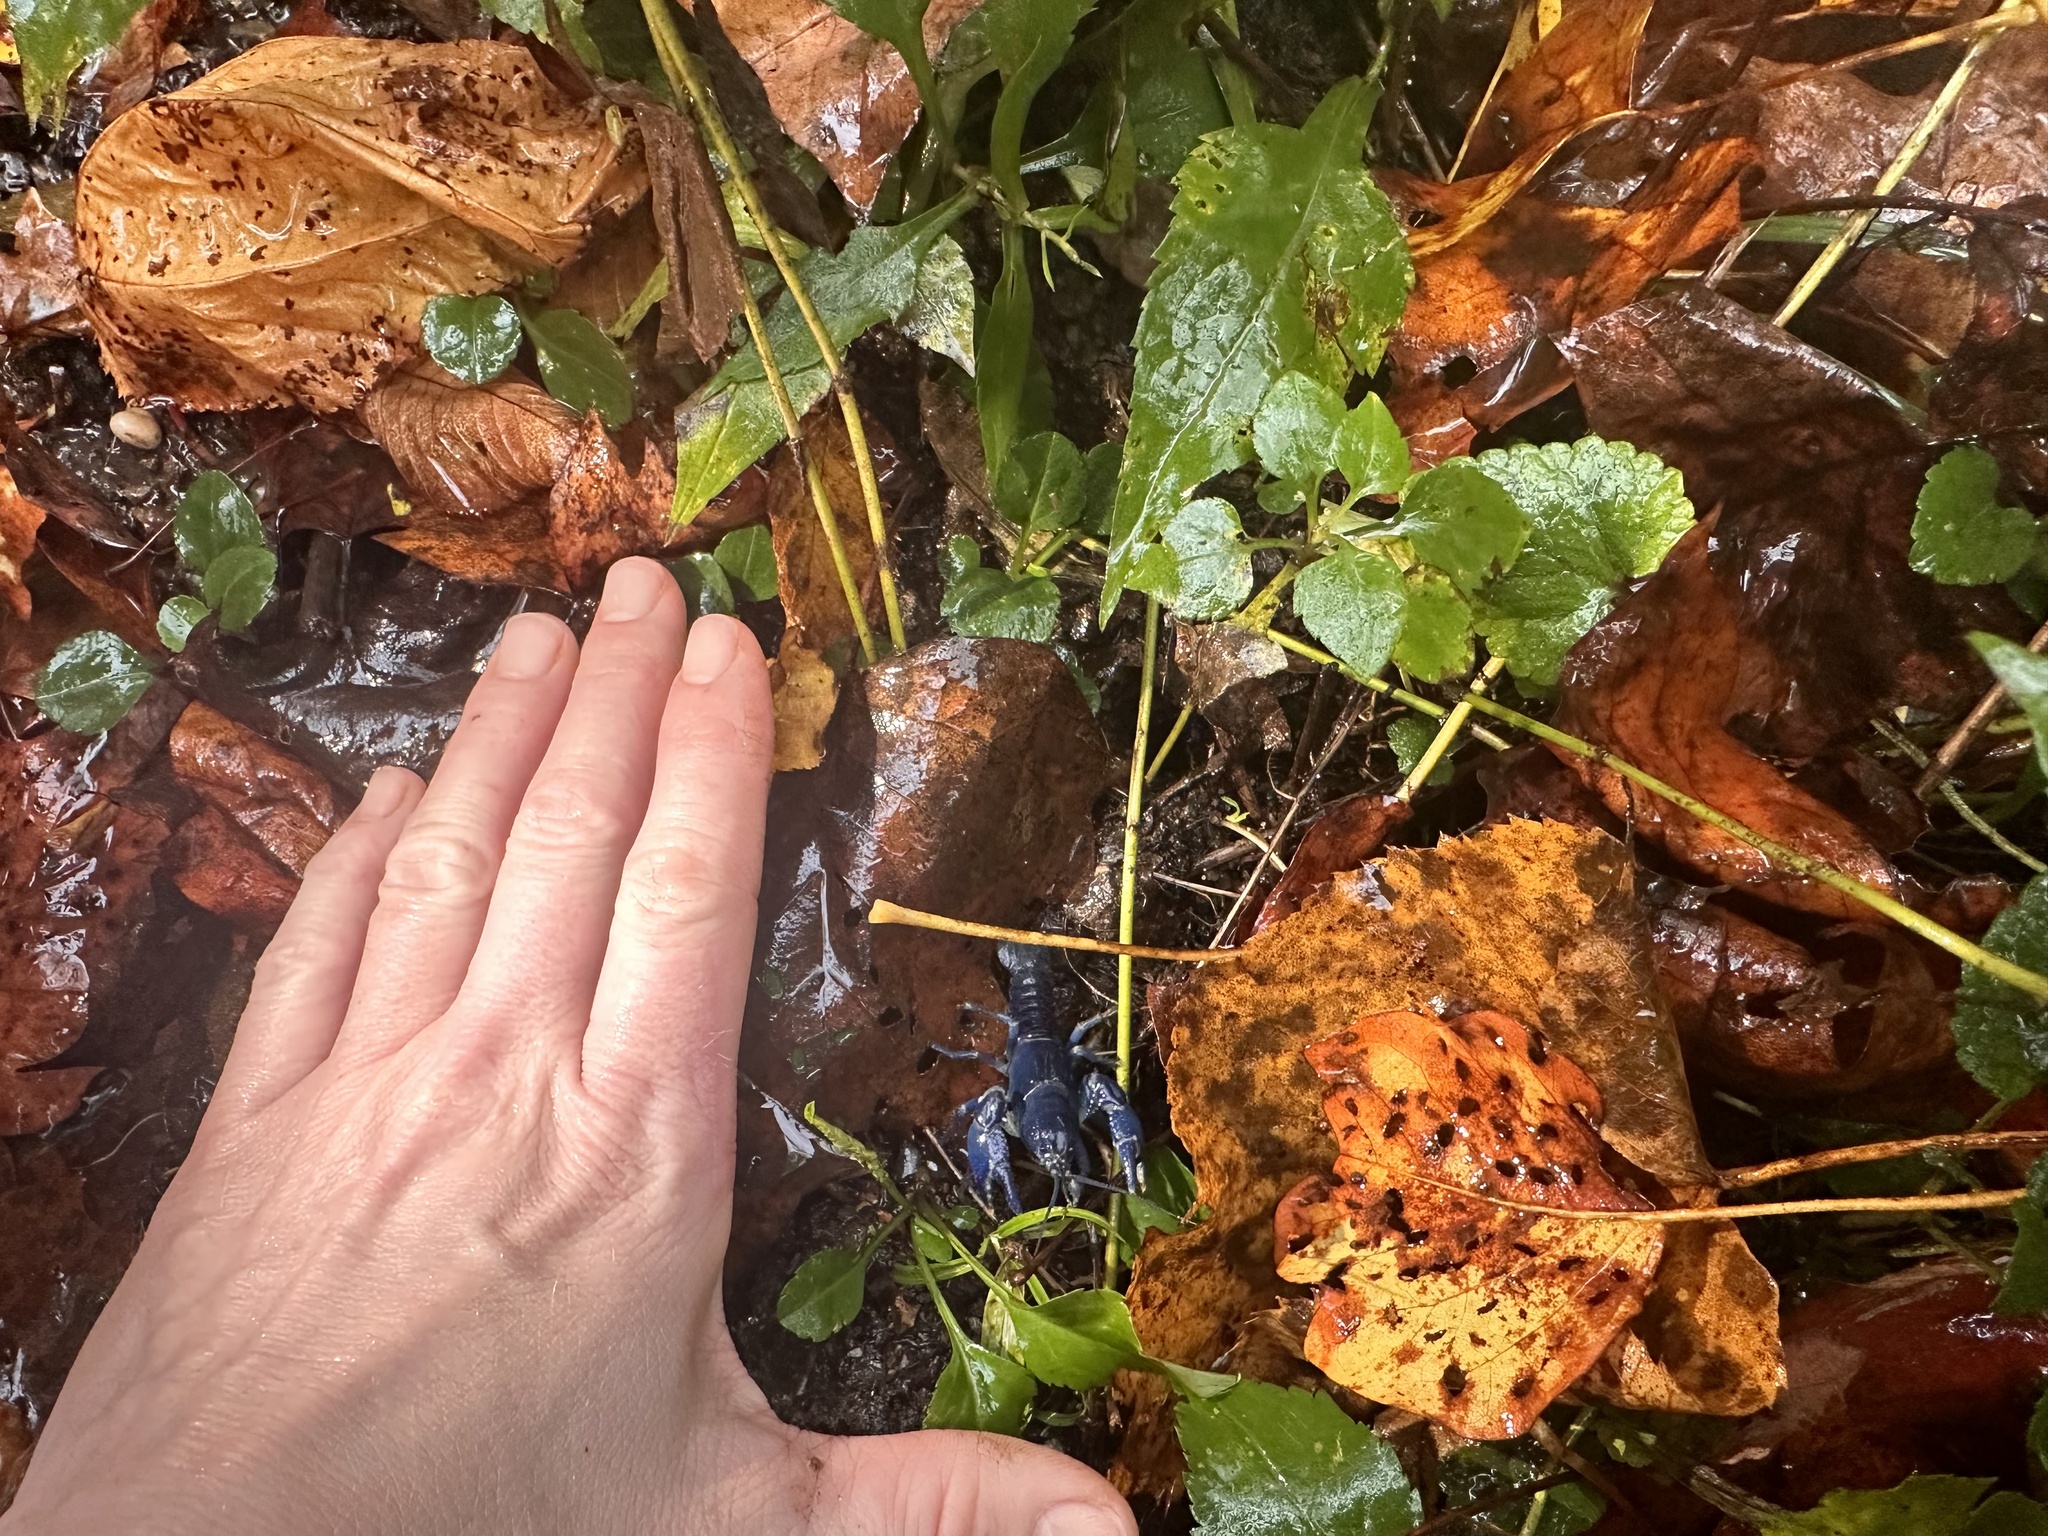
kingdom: Animalia
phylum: Arthropoda
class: Malacostraca
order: Decapoda
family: Cambaridae
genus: Cambarus
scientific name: Cambarus fetzneri
